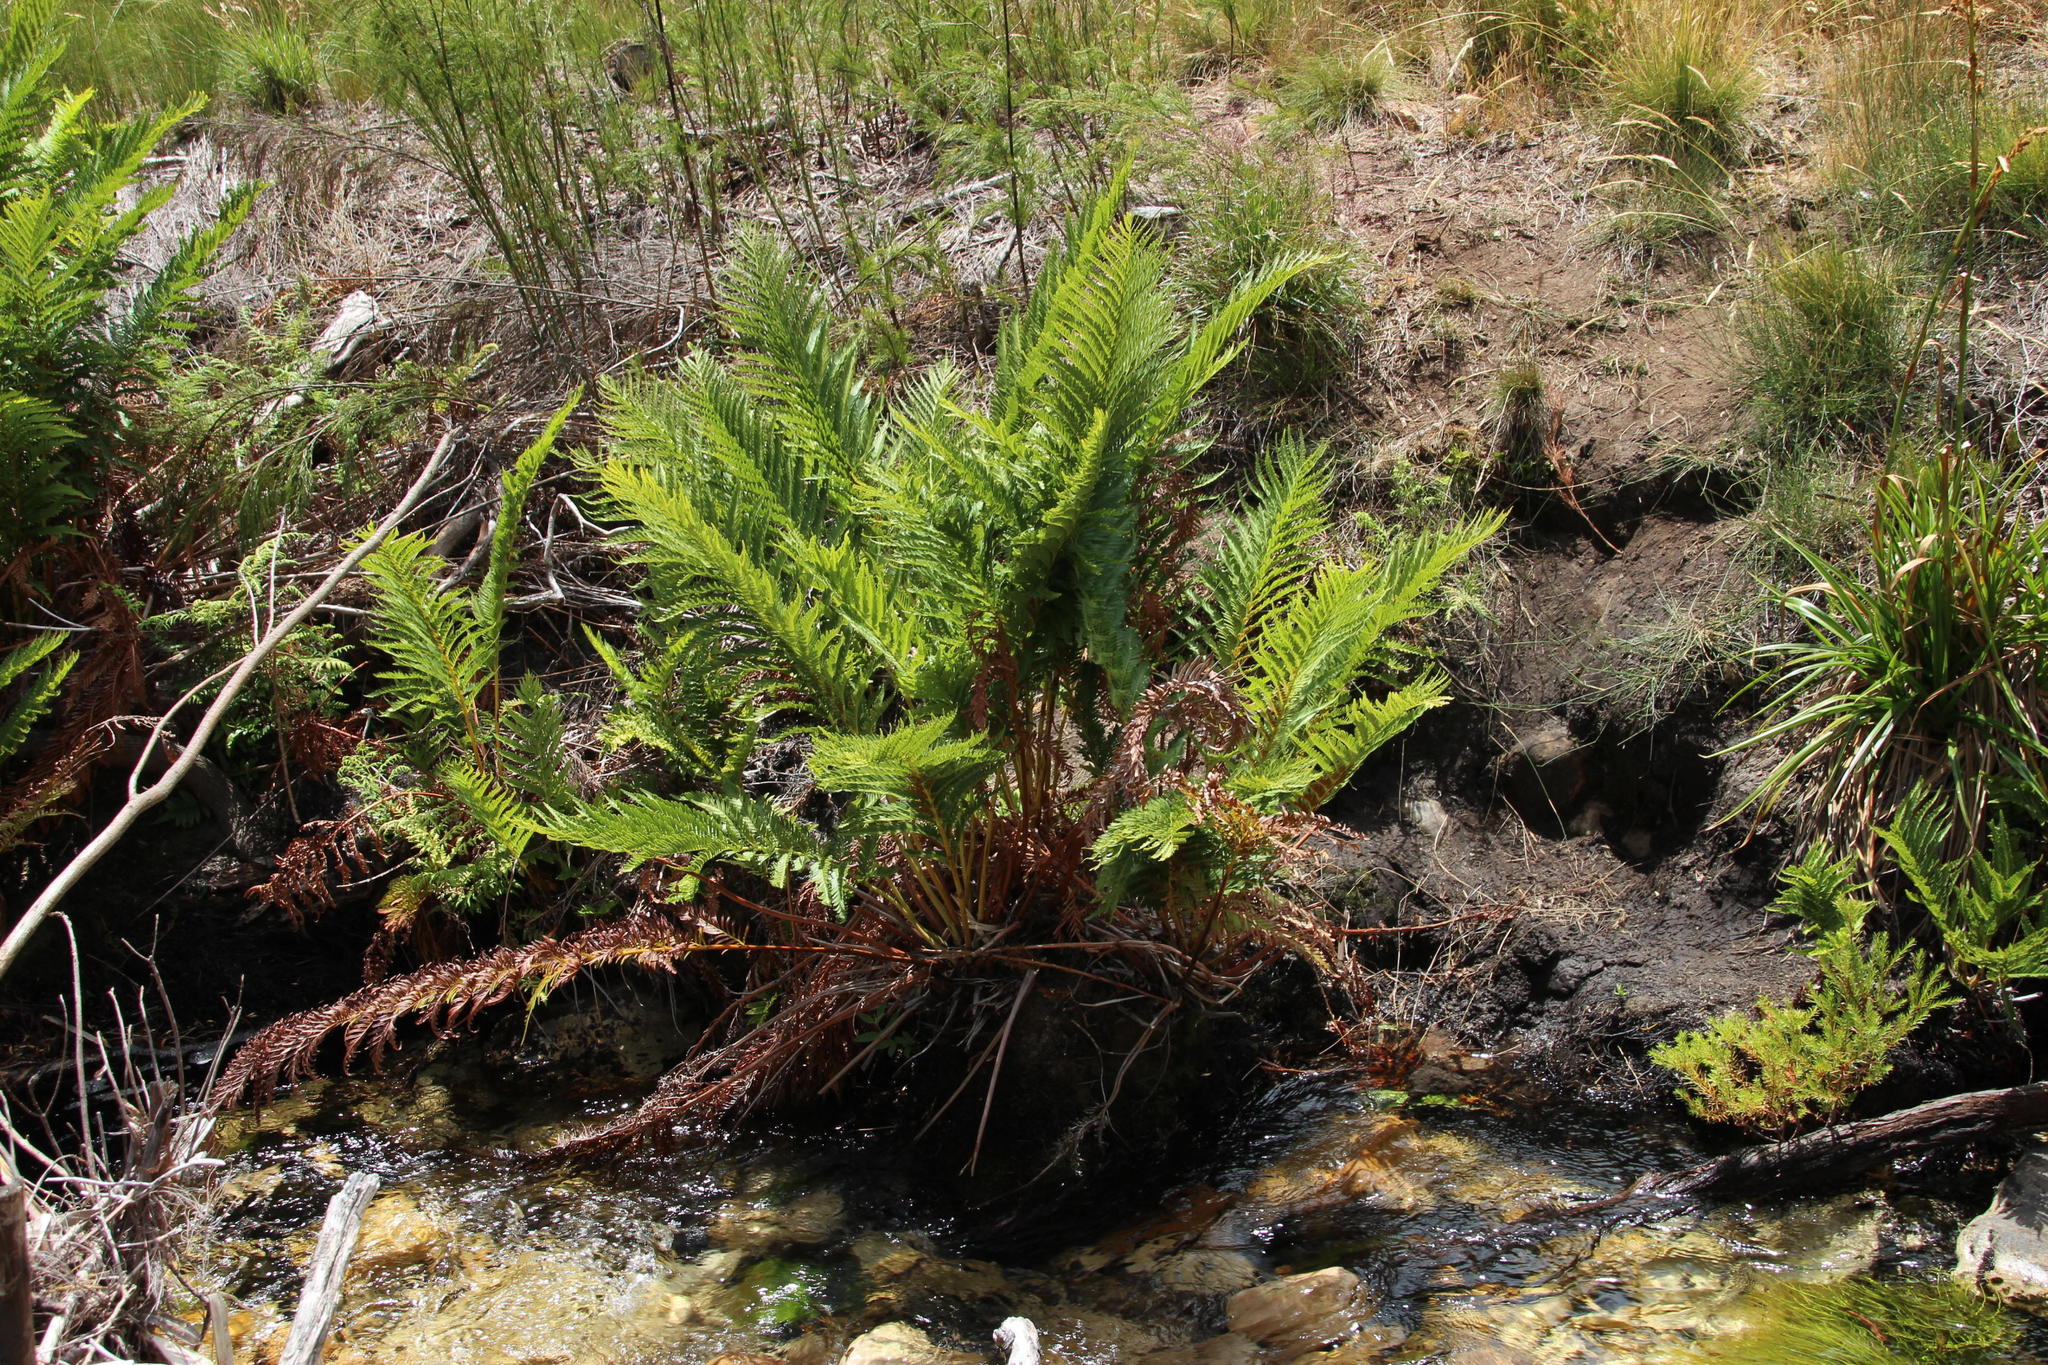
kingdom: Plantae
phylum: Tracheophyta
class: Polypodiopsida
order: Osmundales
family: Osmundaceae
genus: Todea
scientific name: Todea barbara
